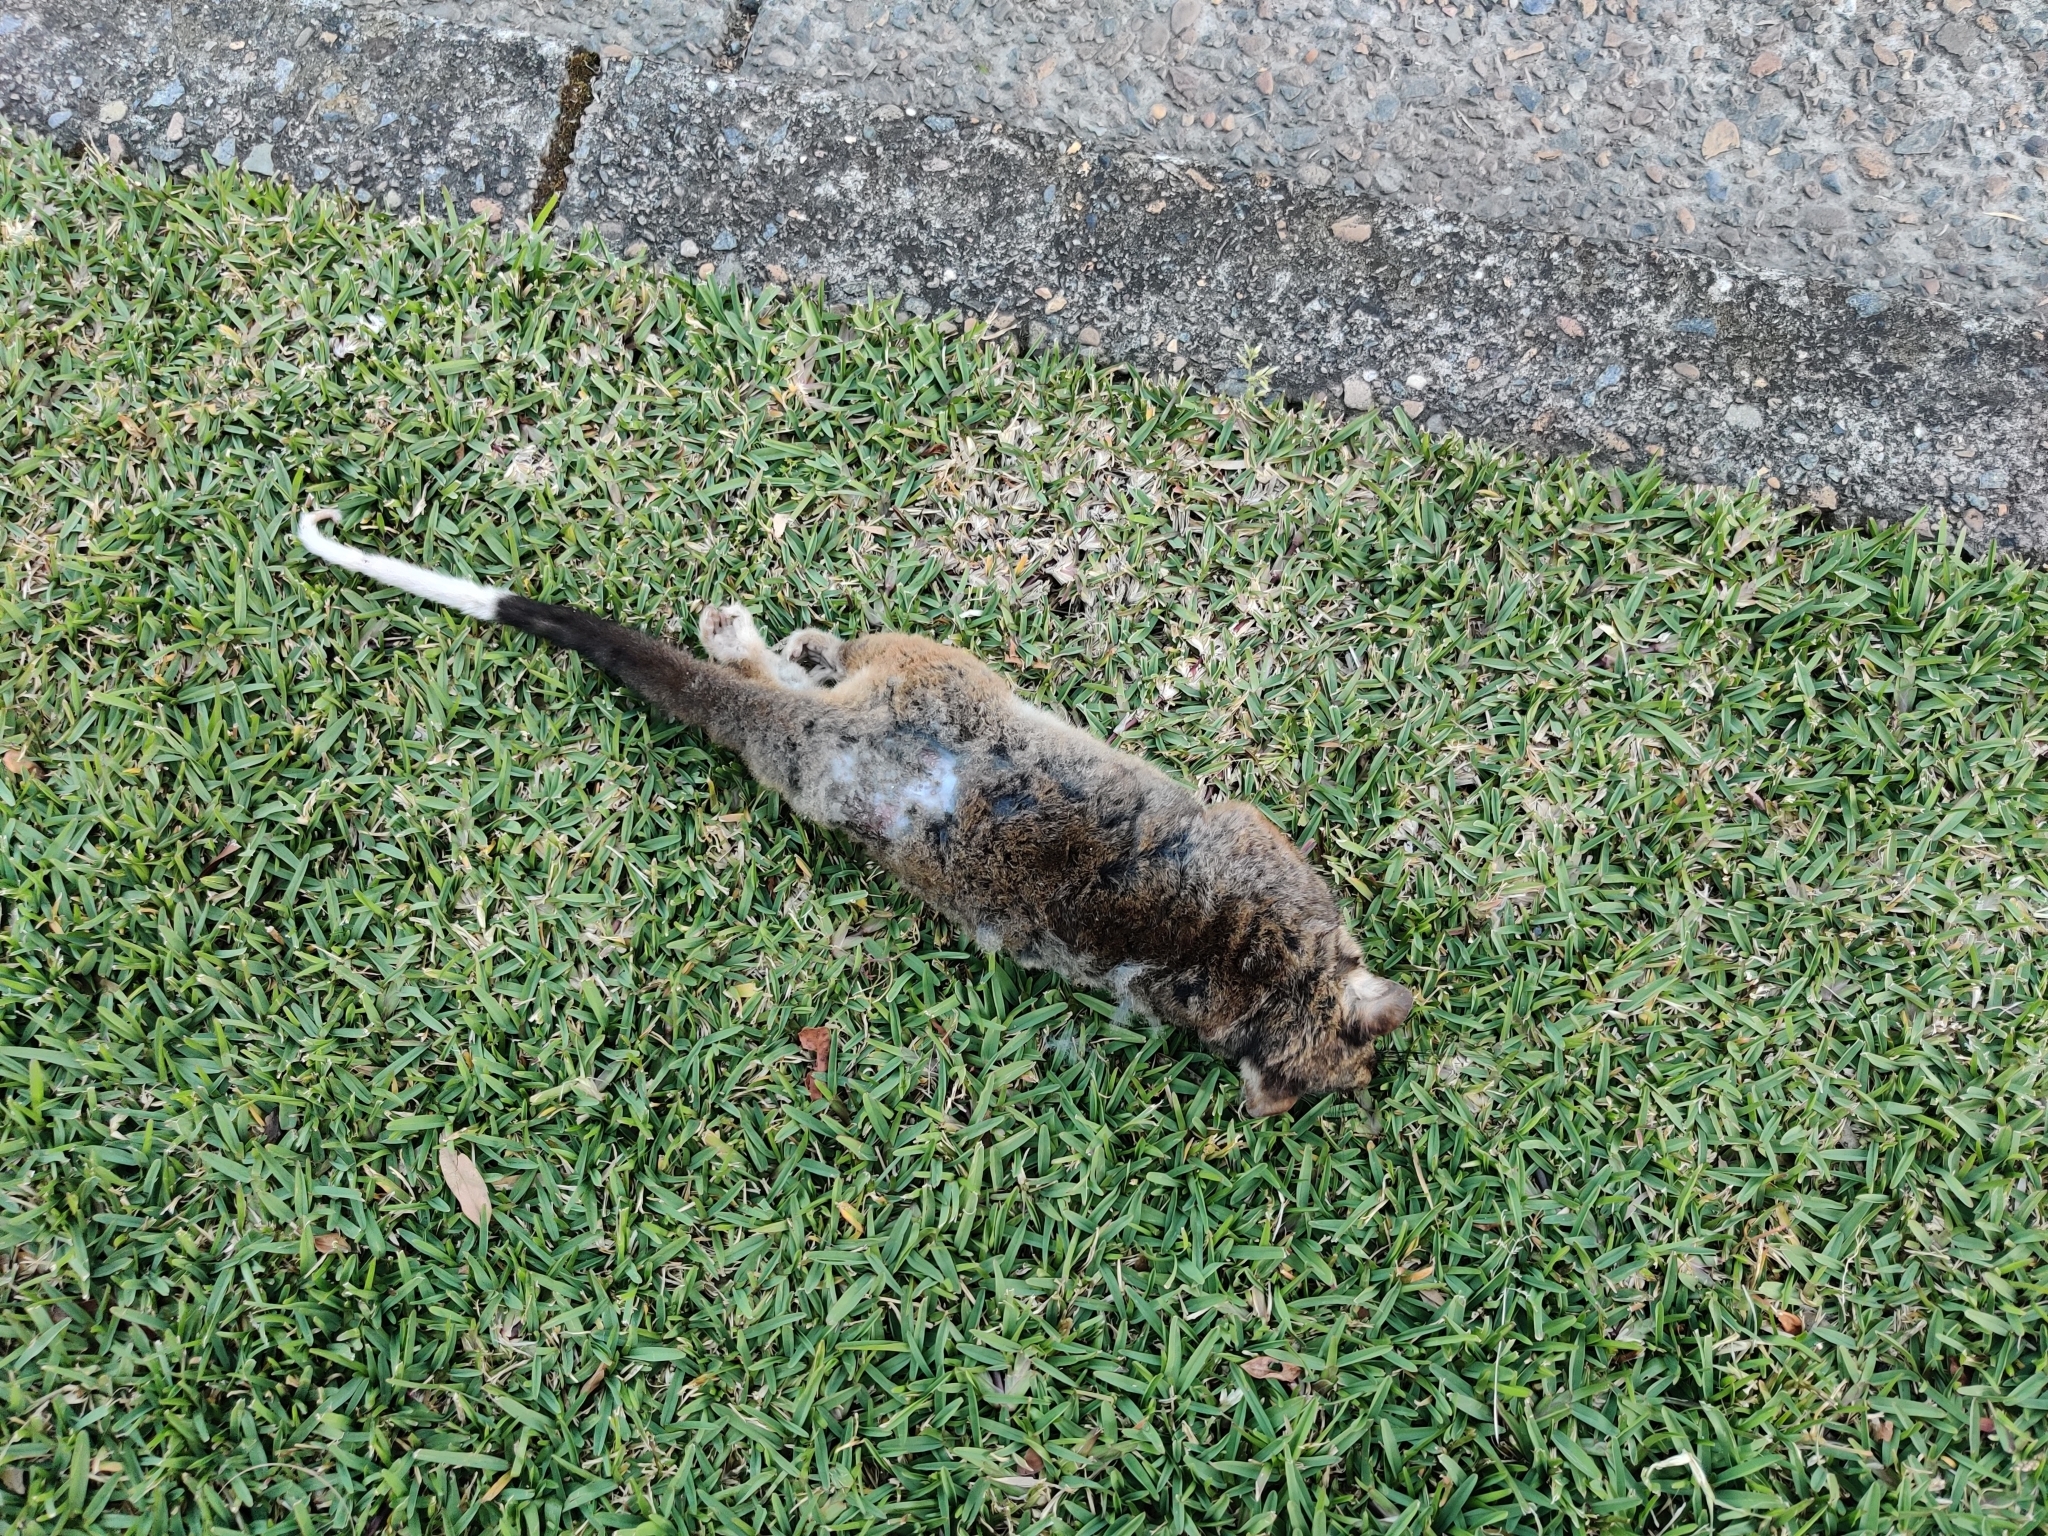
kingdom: Animalia
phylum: Chordata
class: Mammalia
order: Diprotodontia
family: Pseudocheiridae
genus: Pseudocheirus
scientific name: Pseudocheirus peregrinus
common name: Common ringtail possum
